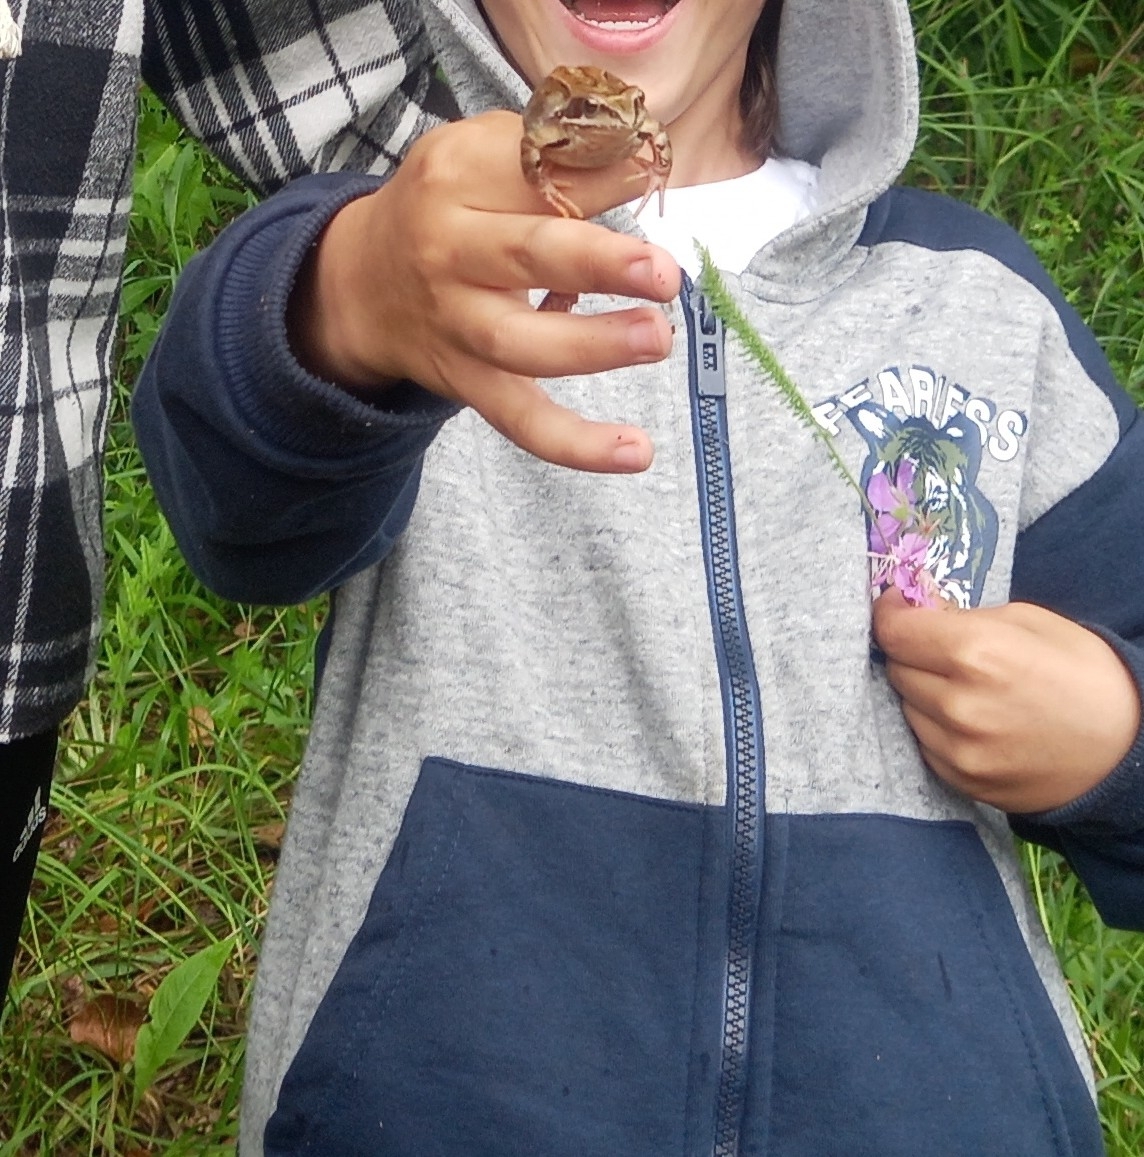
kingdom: Animalia
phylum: Chordata
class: Amphibia
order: Anura
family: Ranidae
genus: Rana
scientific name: Rana temporaria
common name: Common frog
